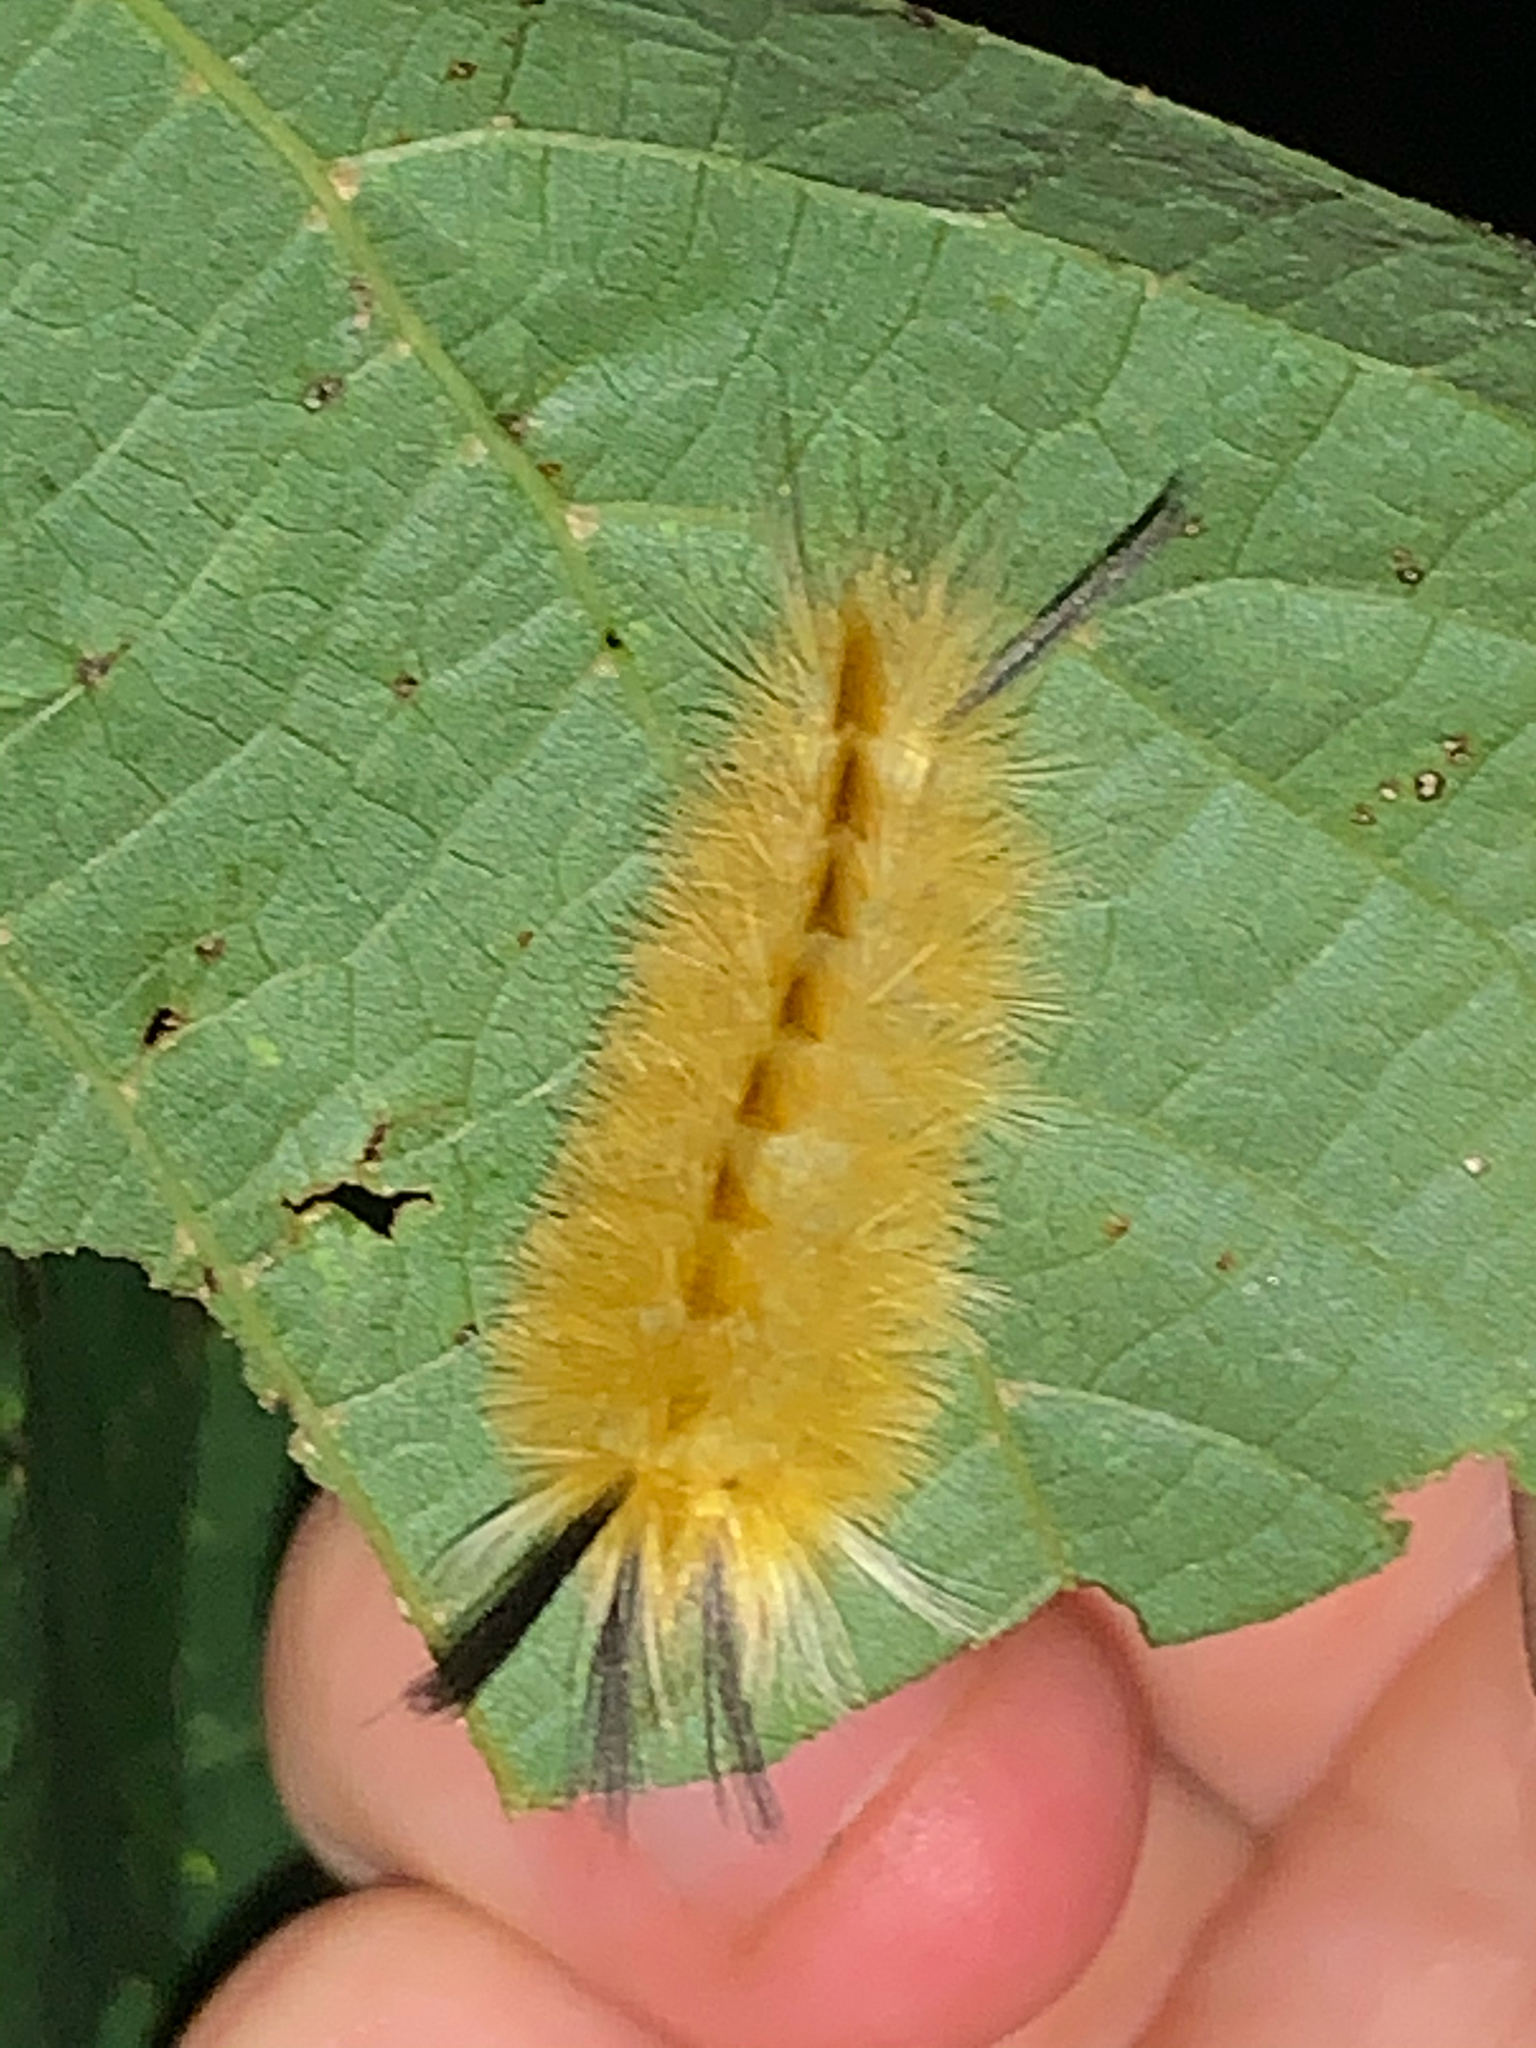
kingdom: Animalia
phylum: Arthropoda
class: Insecta
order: Lepidoptera
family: Erebidae
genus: Halysidota
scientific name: Halysidota tessellaris
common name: Banded tussock moth
